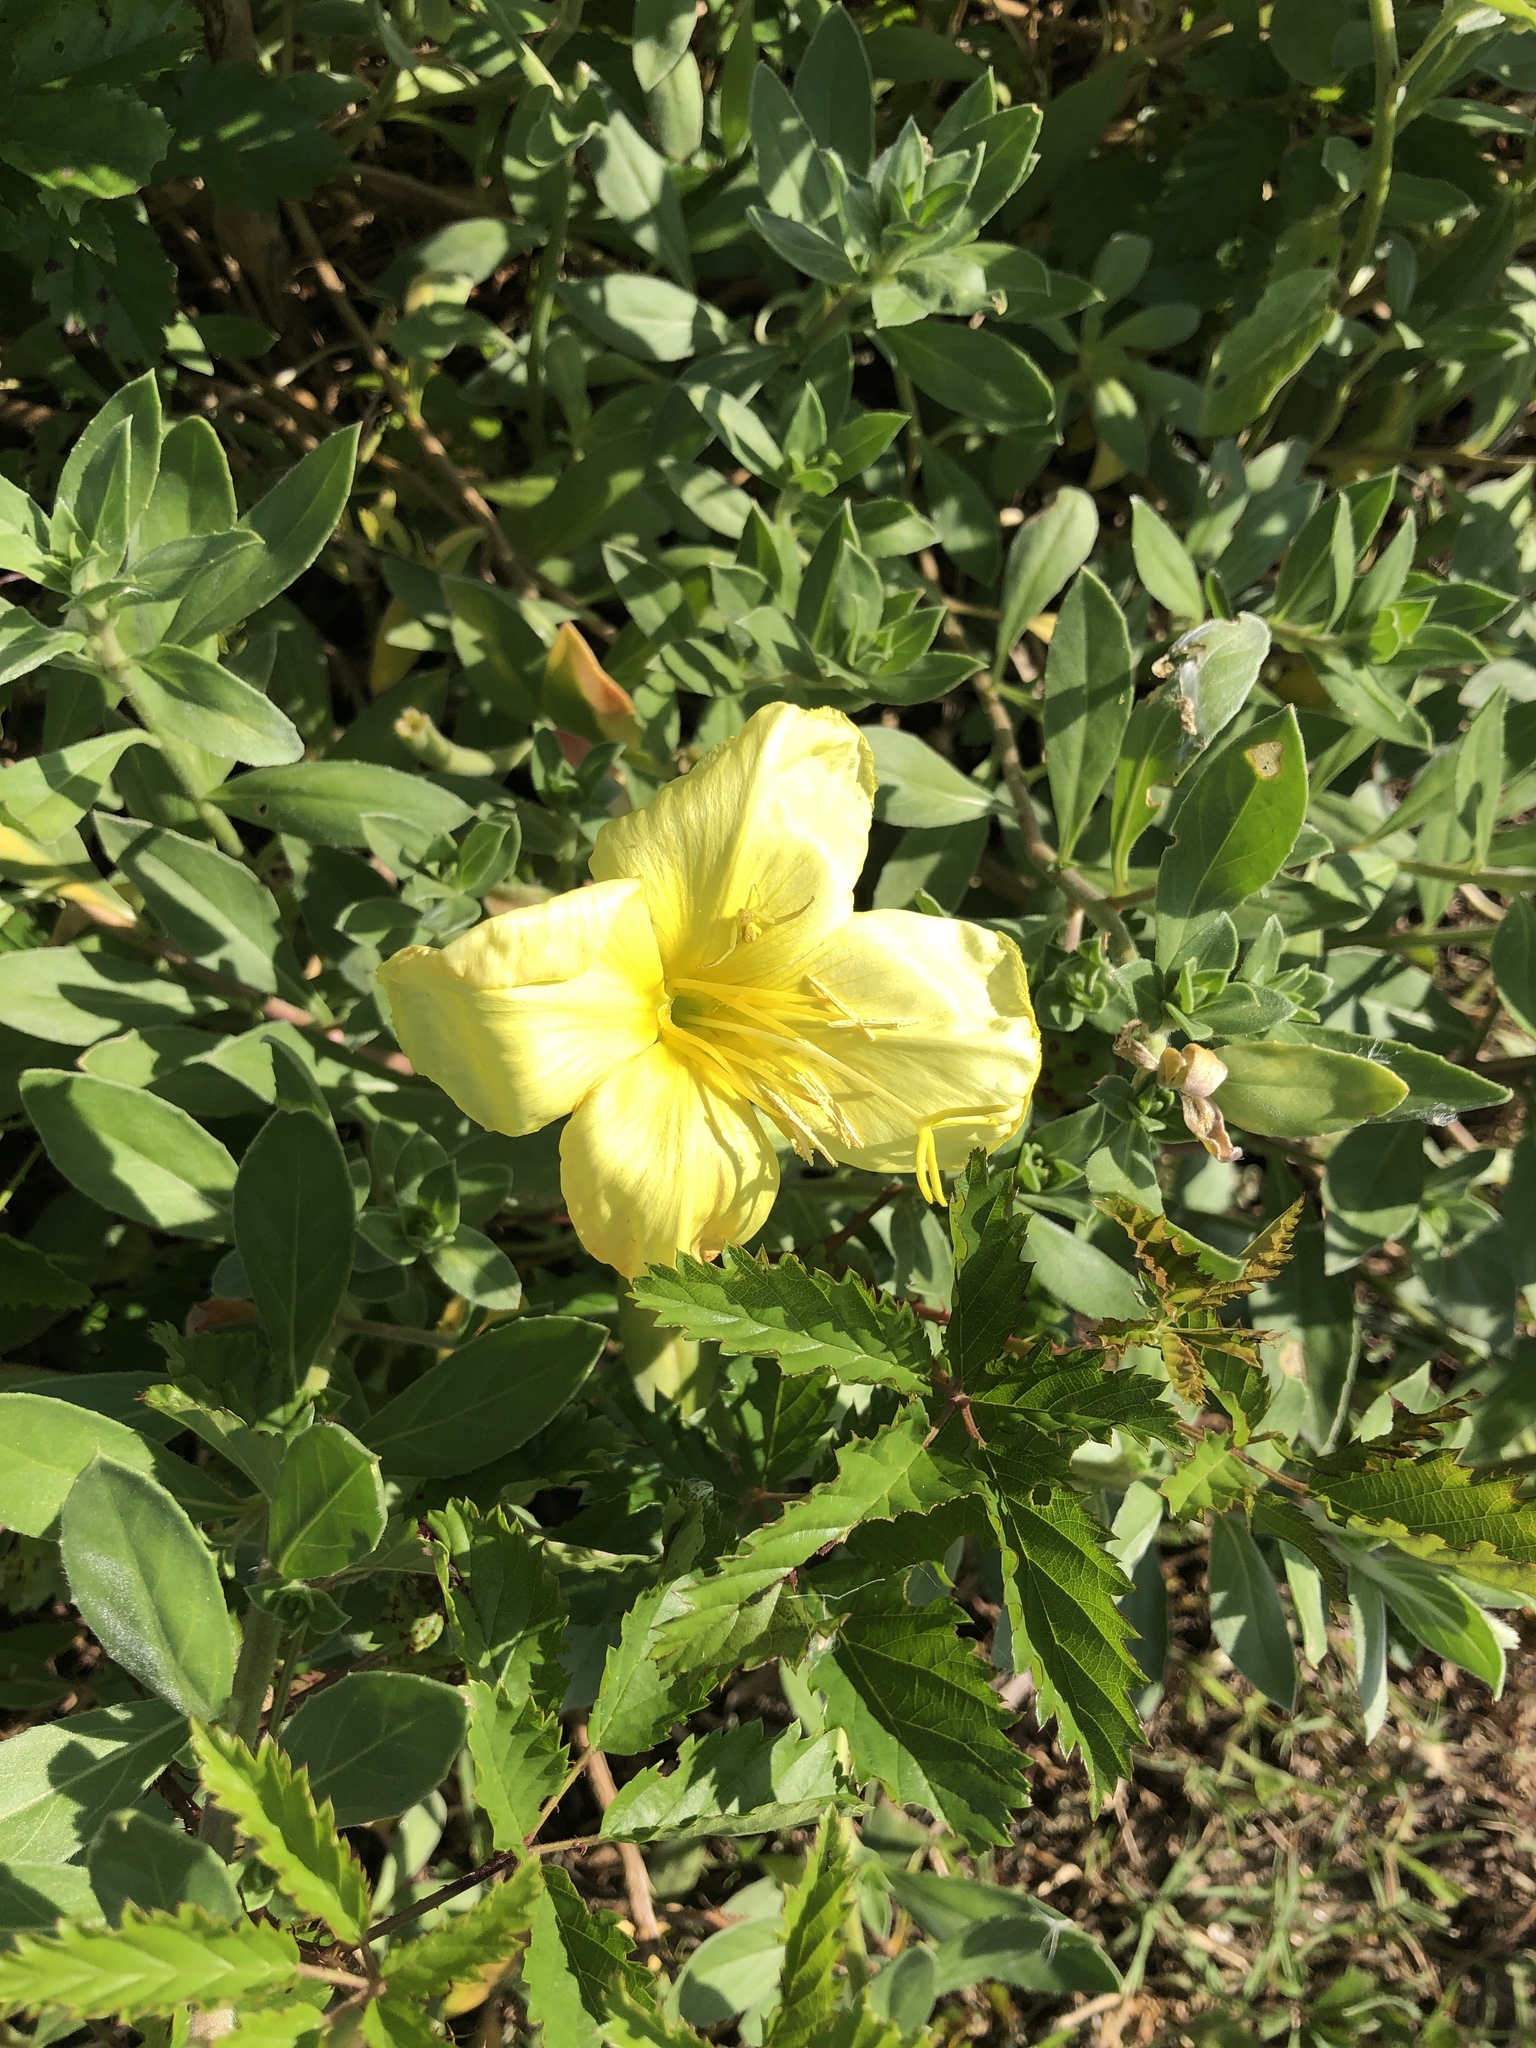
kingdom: Plantae
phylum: Tracheophyta
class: Magnoliopsida
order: Myrtales
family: Onagraceae
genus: Oenothera
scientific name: Oenothera drummondii
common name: Beach evening-primrose
